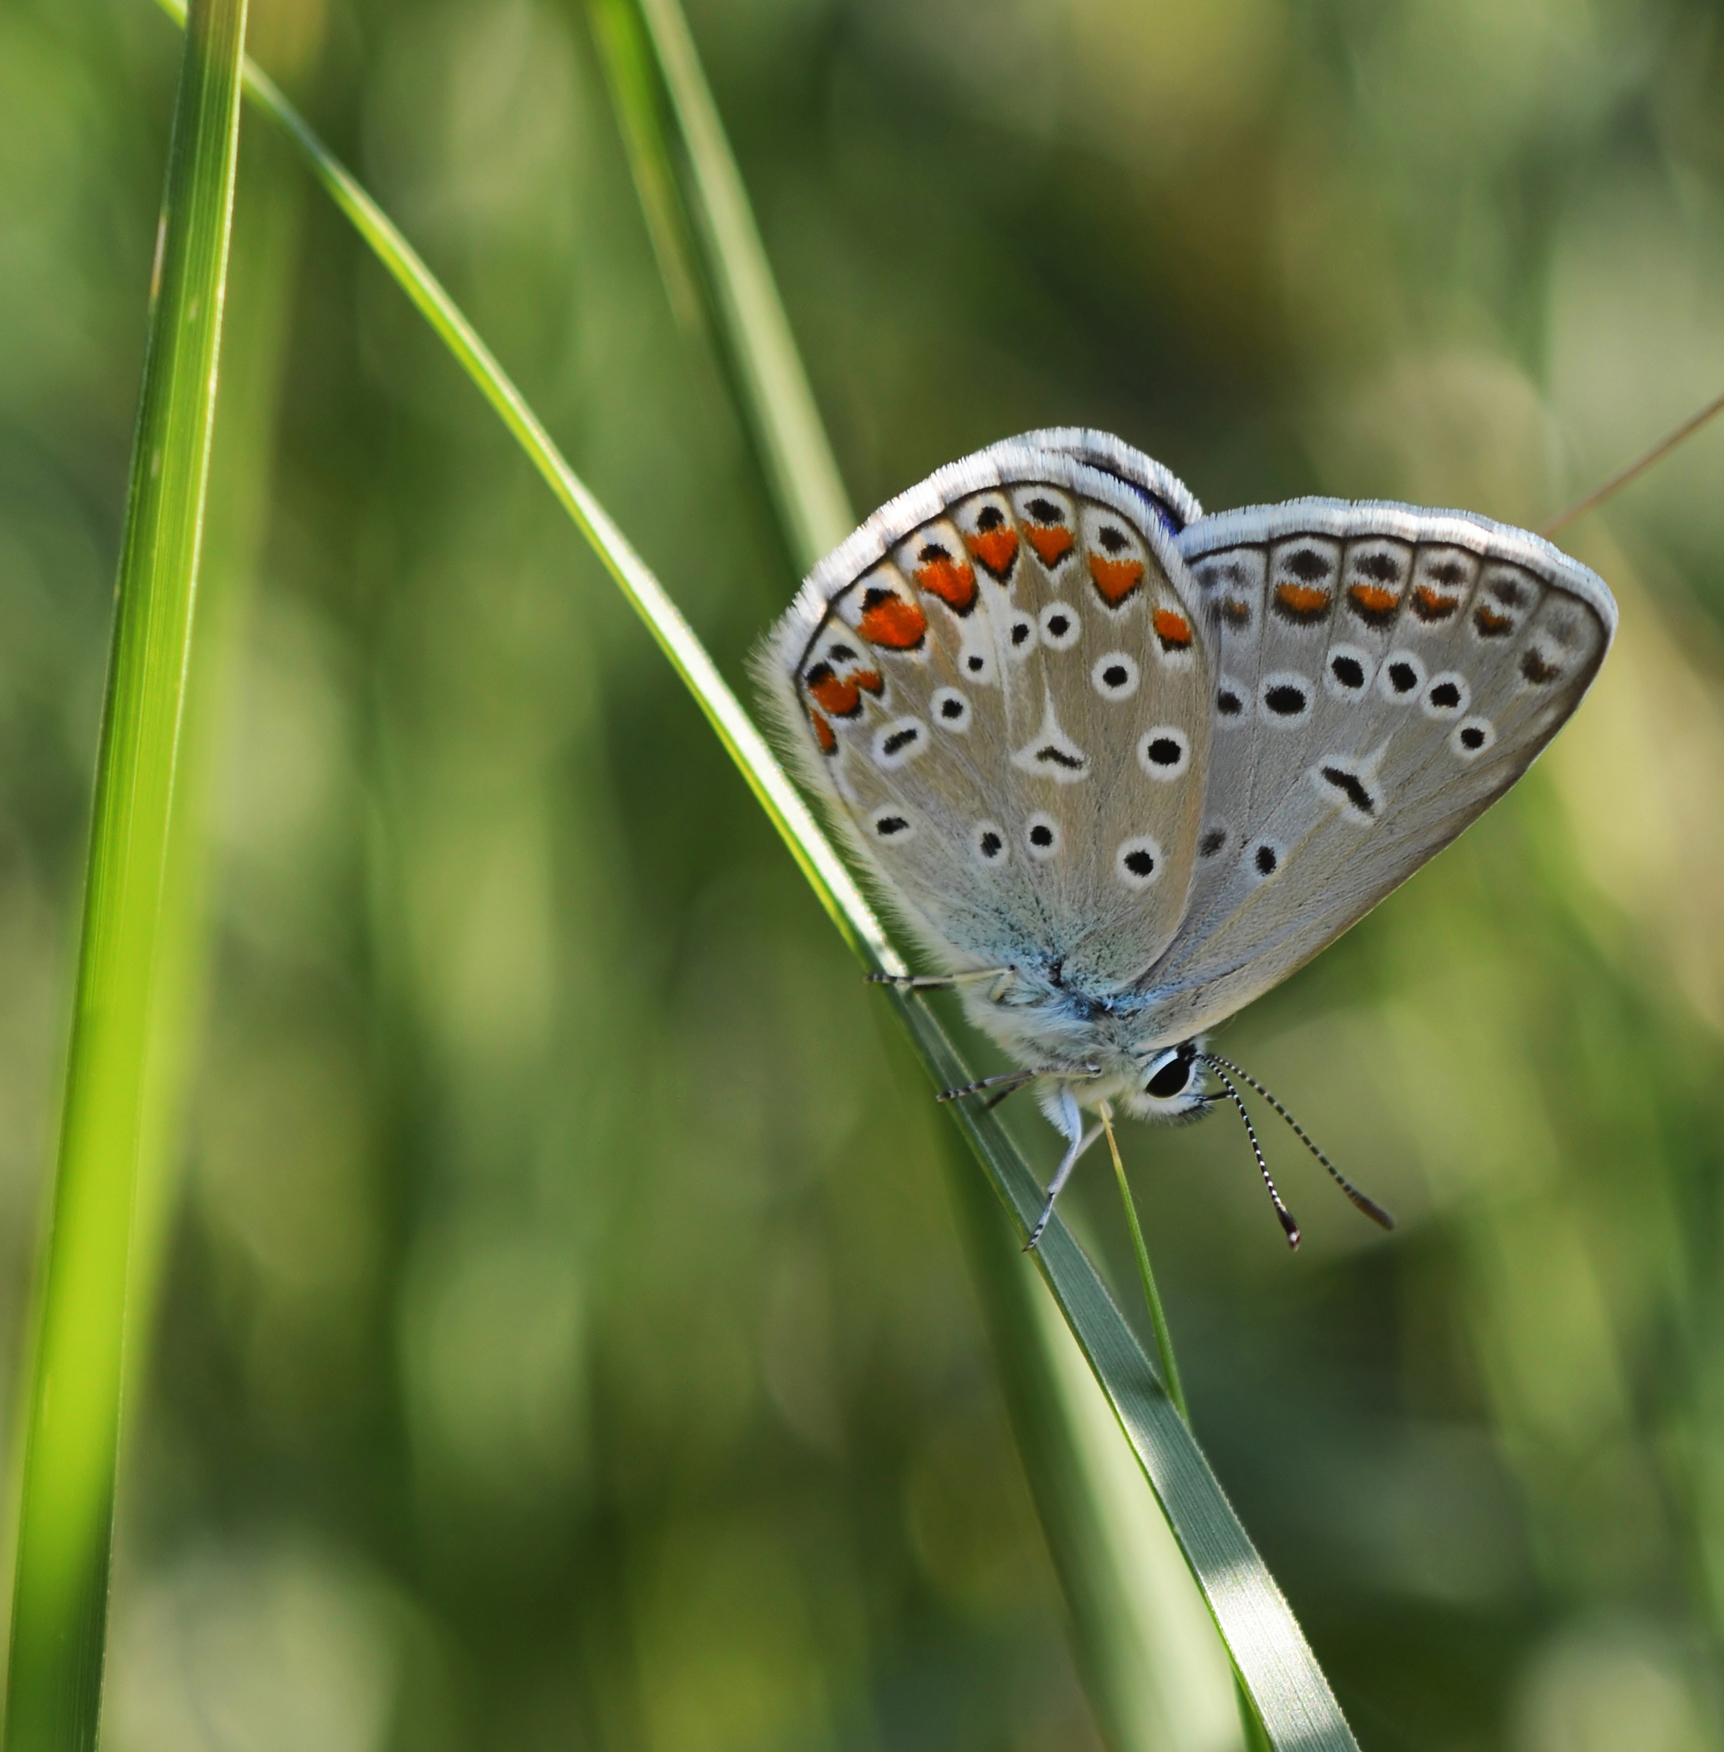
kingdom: Animalia
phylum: Arthropoda
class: Insecta
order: Lepidoptera
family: Lycaenidae
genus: Polyommatus
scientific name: Polyommatus icarus
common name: Common blue
